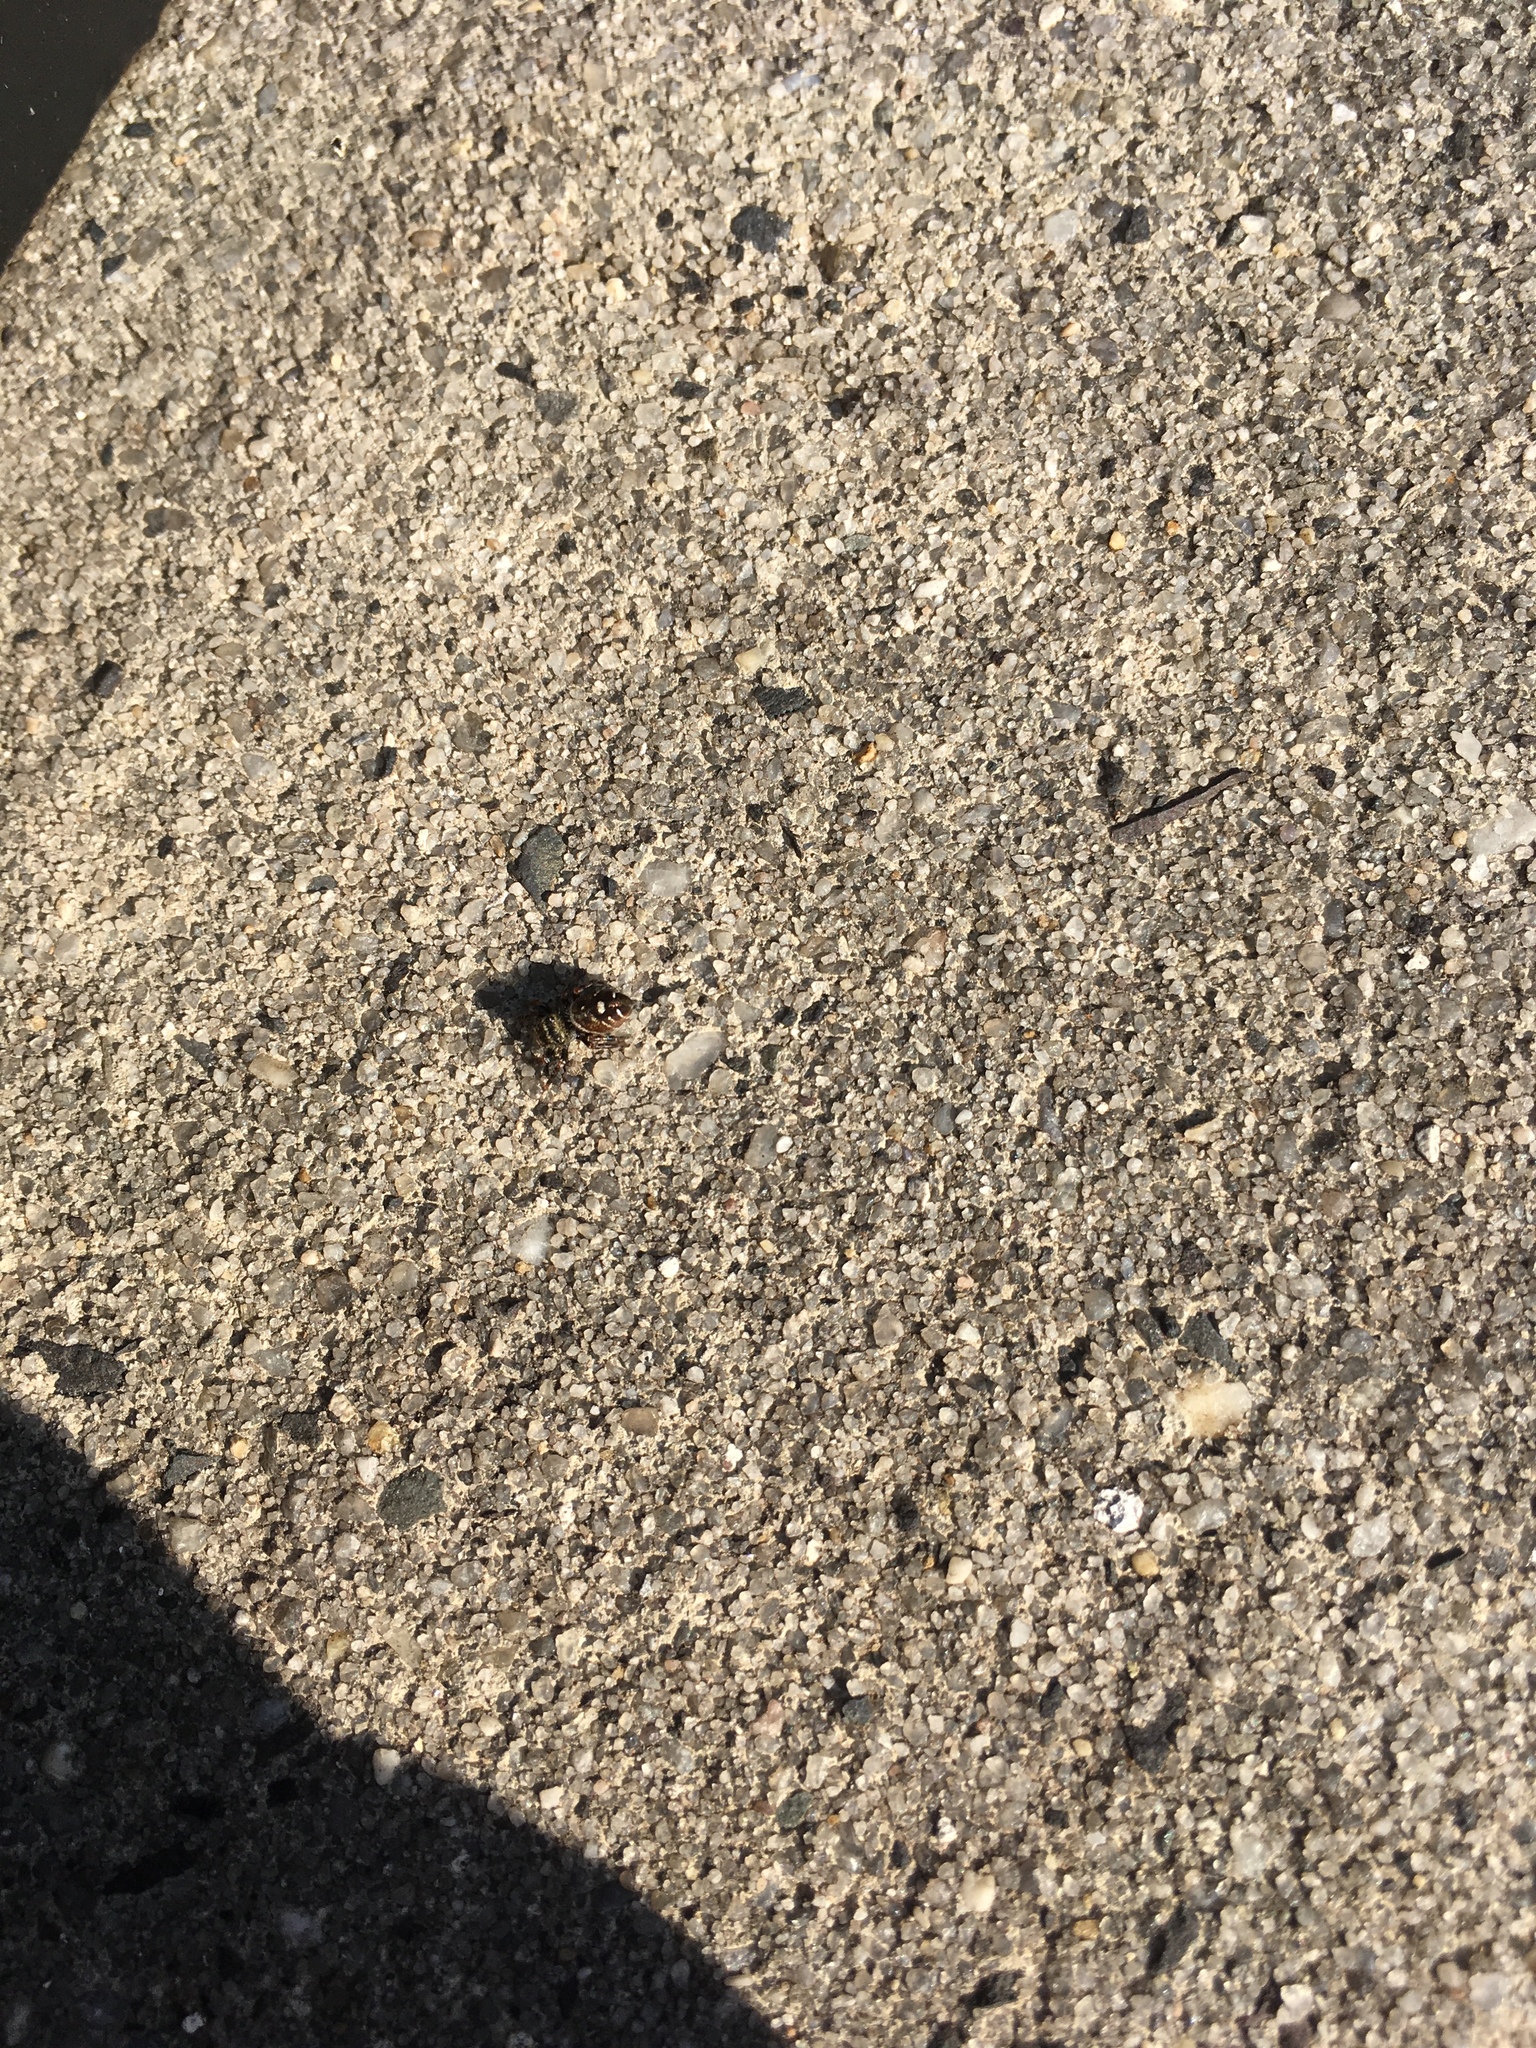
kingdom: Animalia
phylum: Arthropoda
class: Arachnida
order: Araneae
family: Salticidae
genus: Phidippus
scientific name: Phidippus audax
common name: Bold jumper
